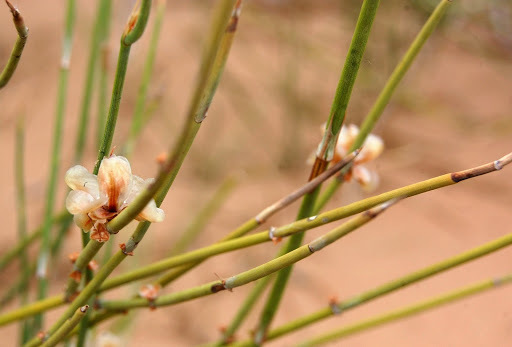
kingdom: Plantae
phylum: Tracheophyta
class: Gnetopsida
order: Ephedrales
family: Ephedraceae
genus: Ephedra
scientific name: Ephedra trifurca
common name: Mexican-tea
